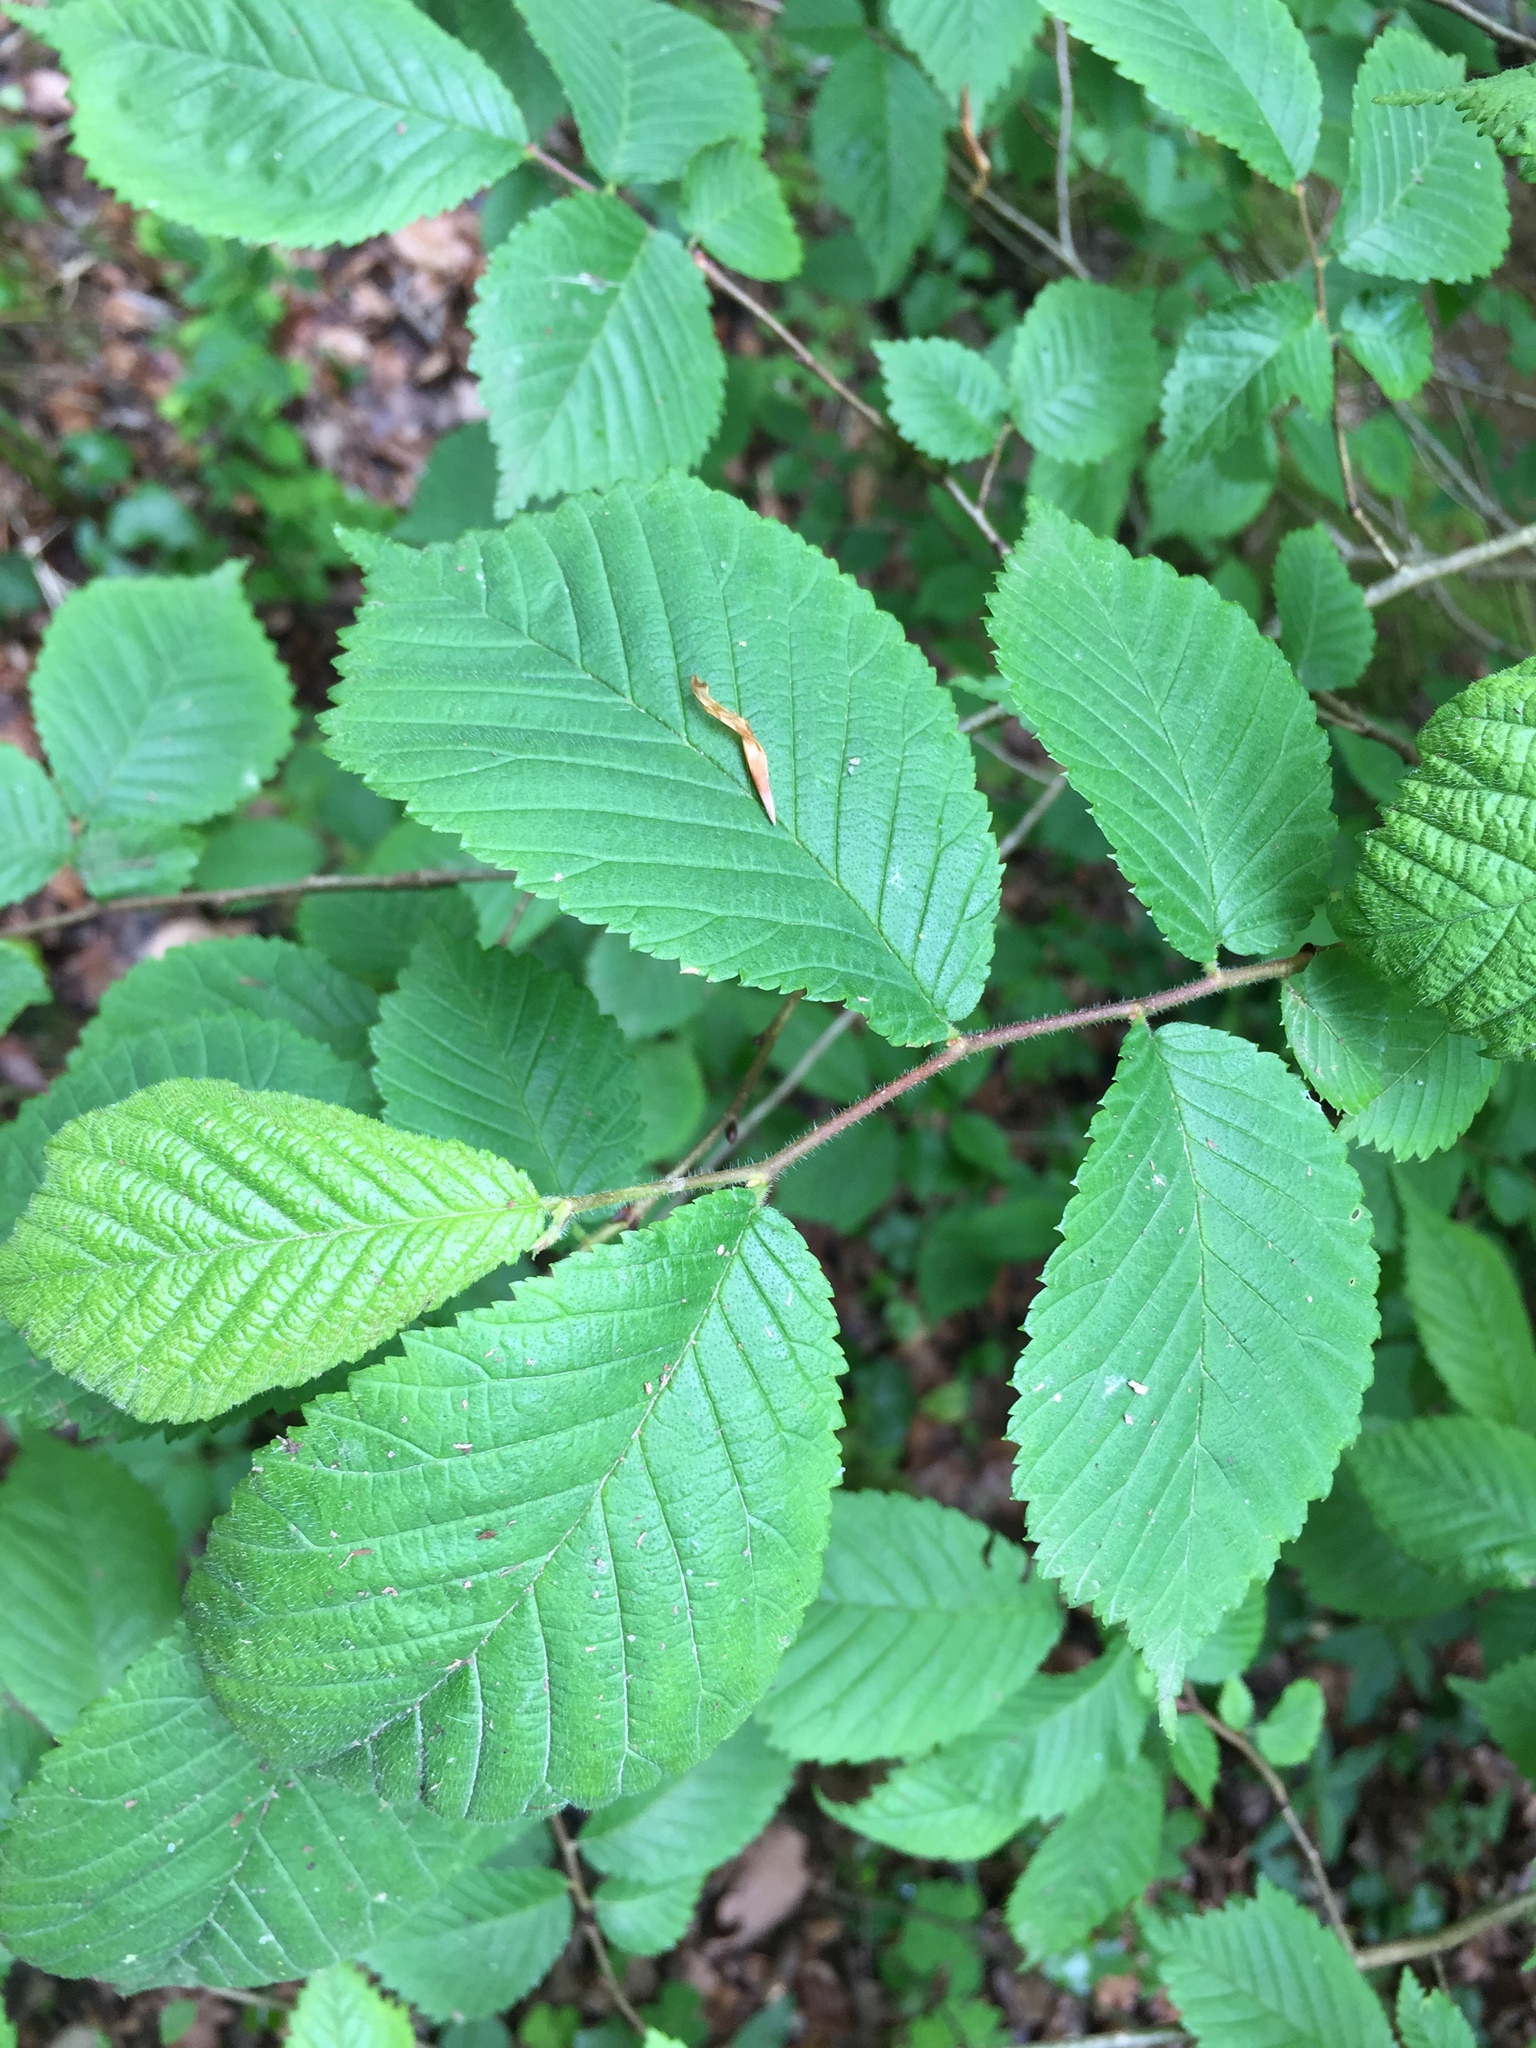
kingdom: Plantae
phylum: Tracheophyta
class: Magnoliopsida
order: Rosales
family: Ulmaceae
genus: Ulmus
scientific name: Ulmus glabra
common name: Wych elm
